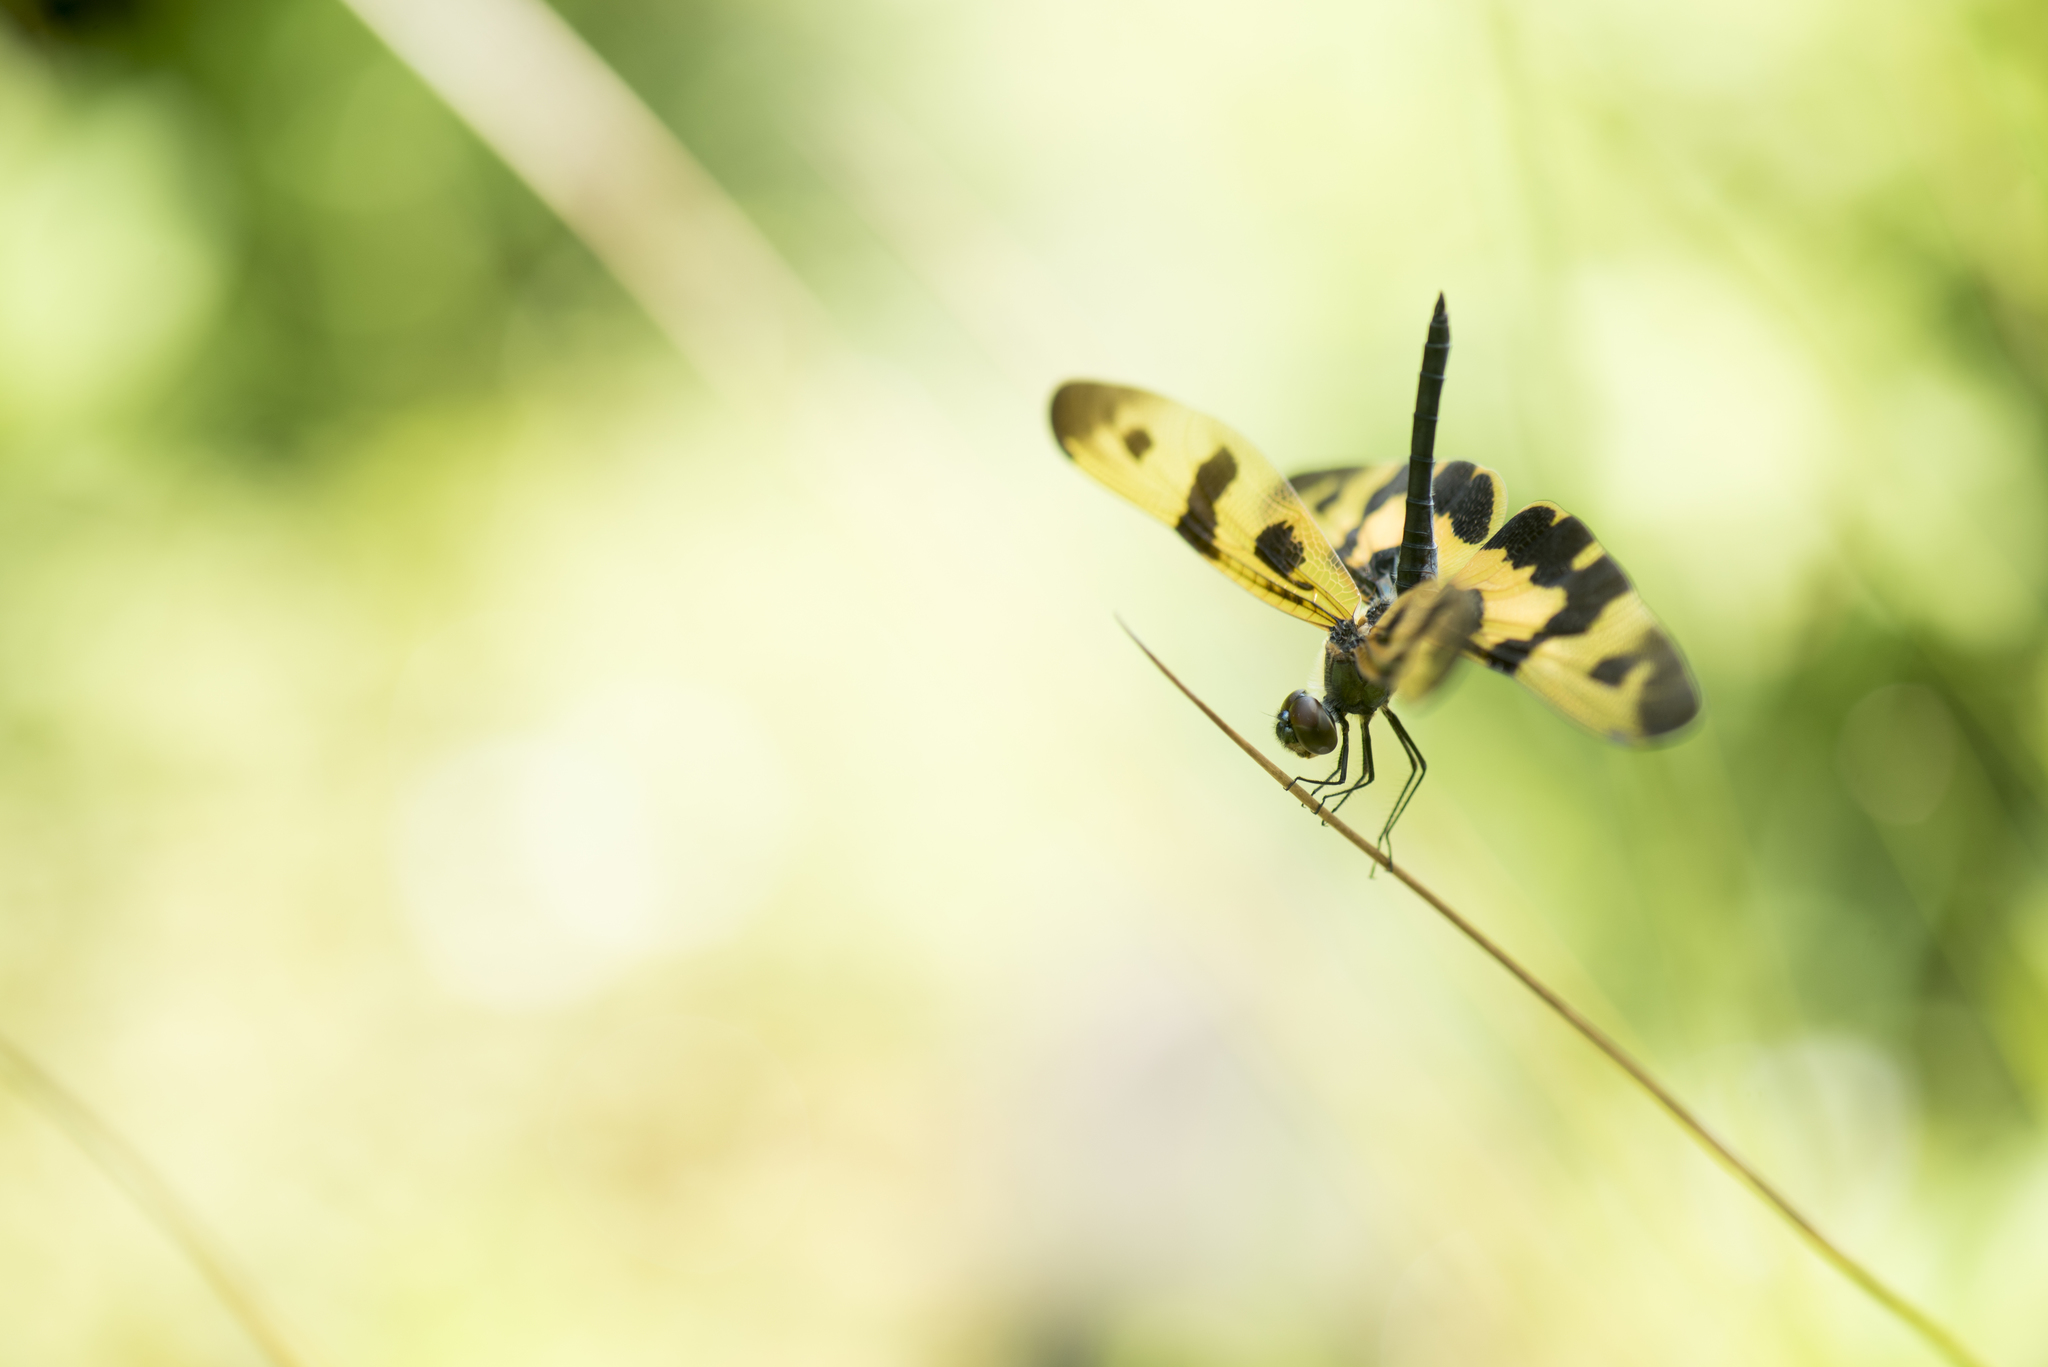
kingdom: Animalia
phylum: Arthropoda
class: Insecta
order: Odonata
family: Libellulidae
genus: Rhyothemis
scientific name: Rhyothemis variegata
